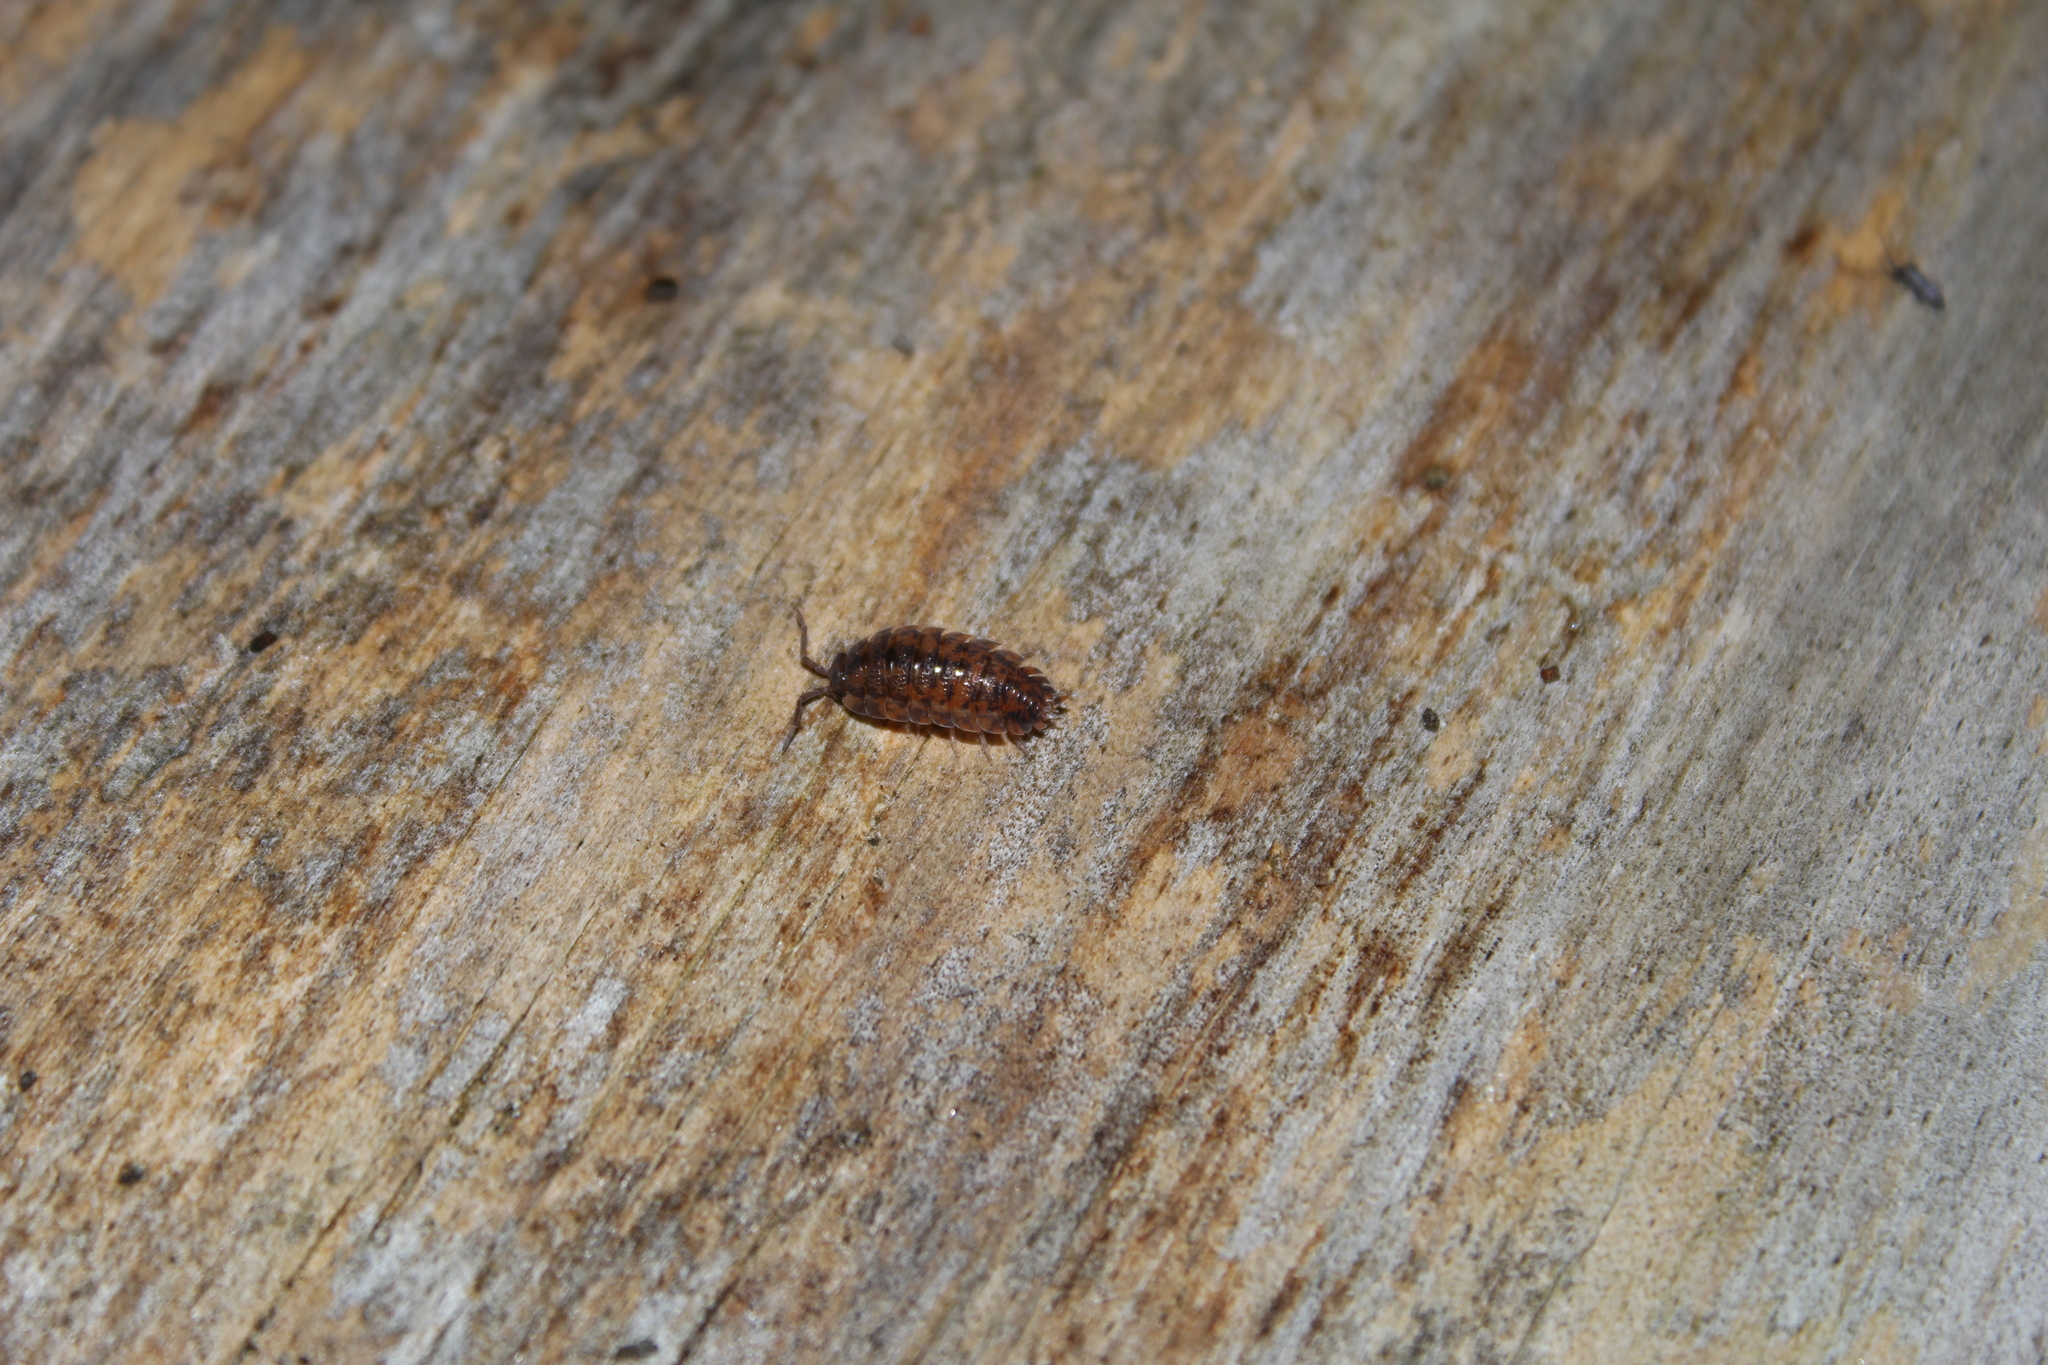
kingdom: Animalia
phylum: Arthropoda
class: Malacostraca
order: Isopoda
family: Porcellionidae
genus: Porcellio
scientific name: Porcellio scaber
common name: Common rough woodlouse
